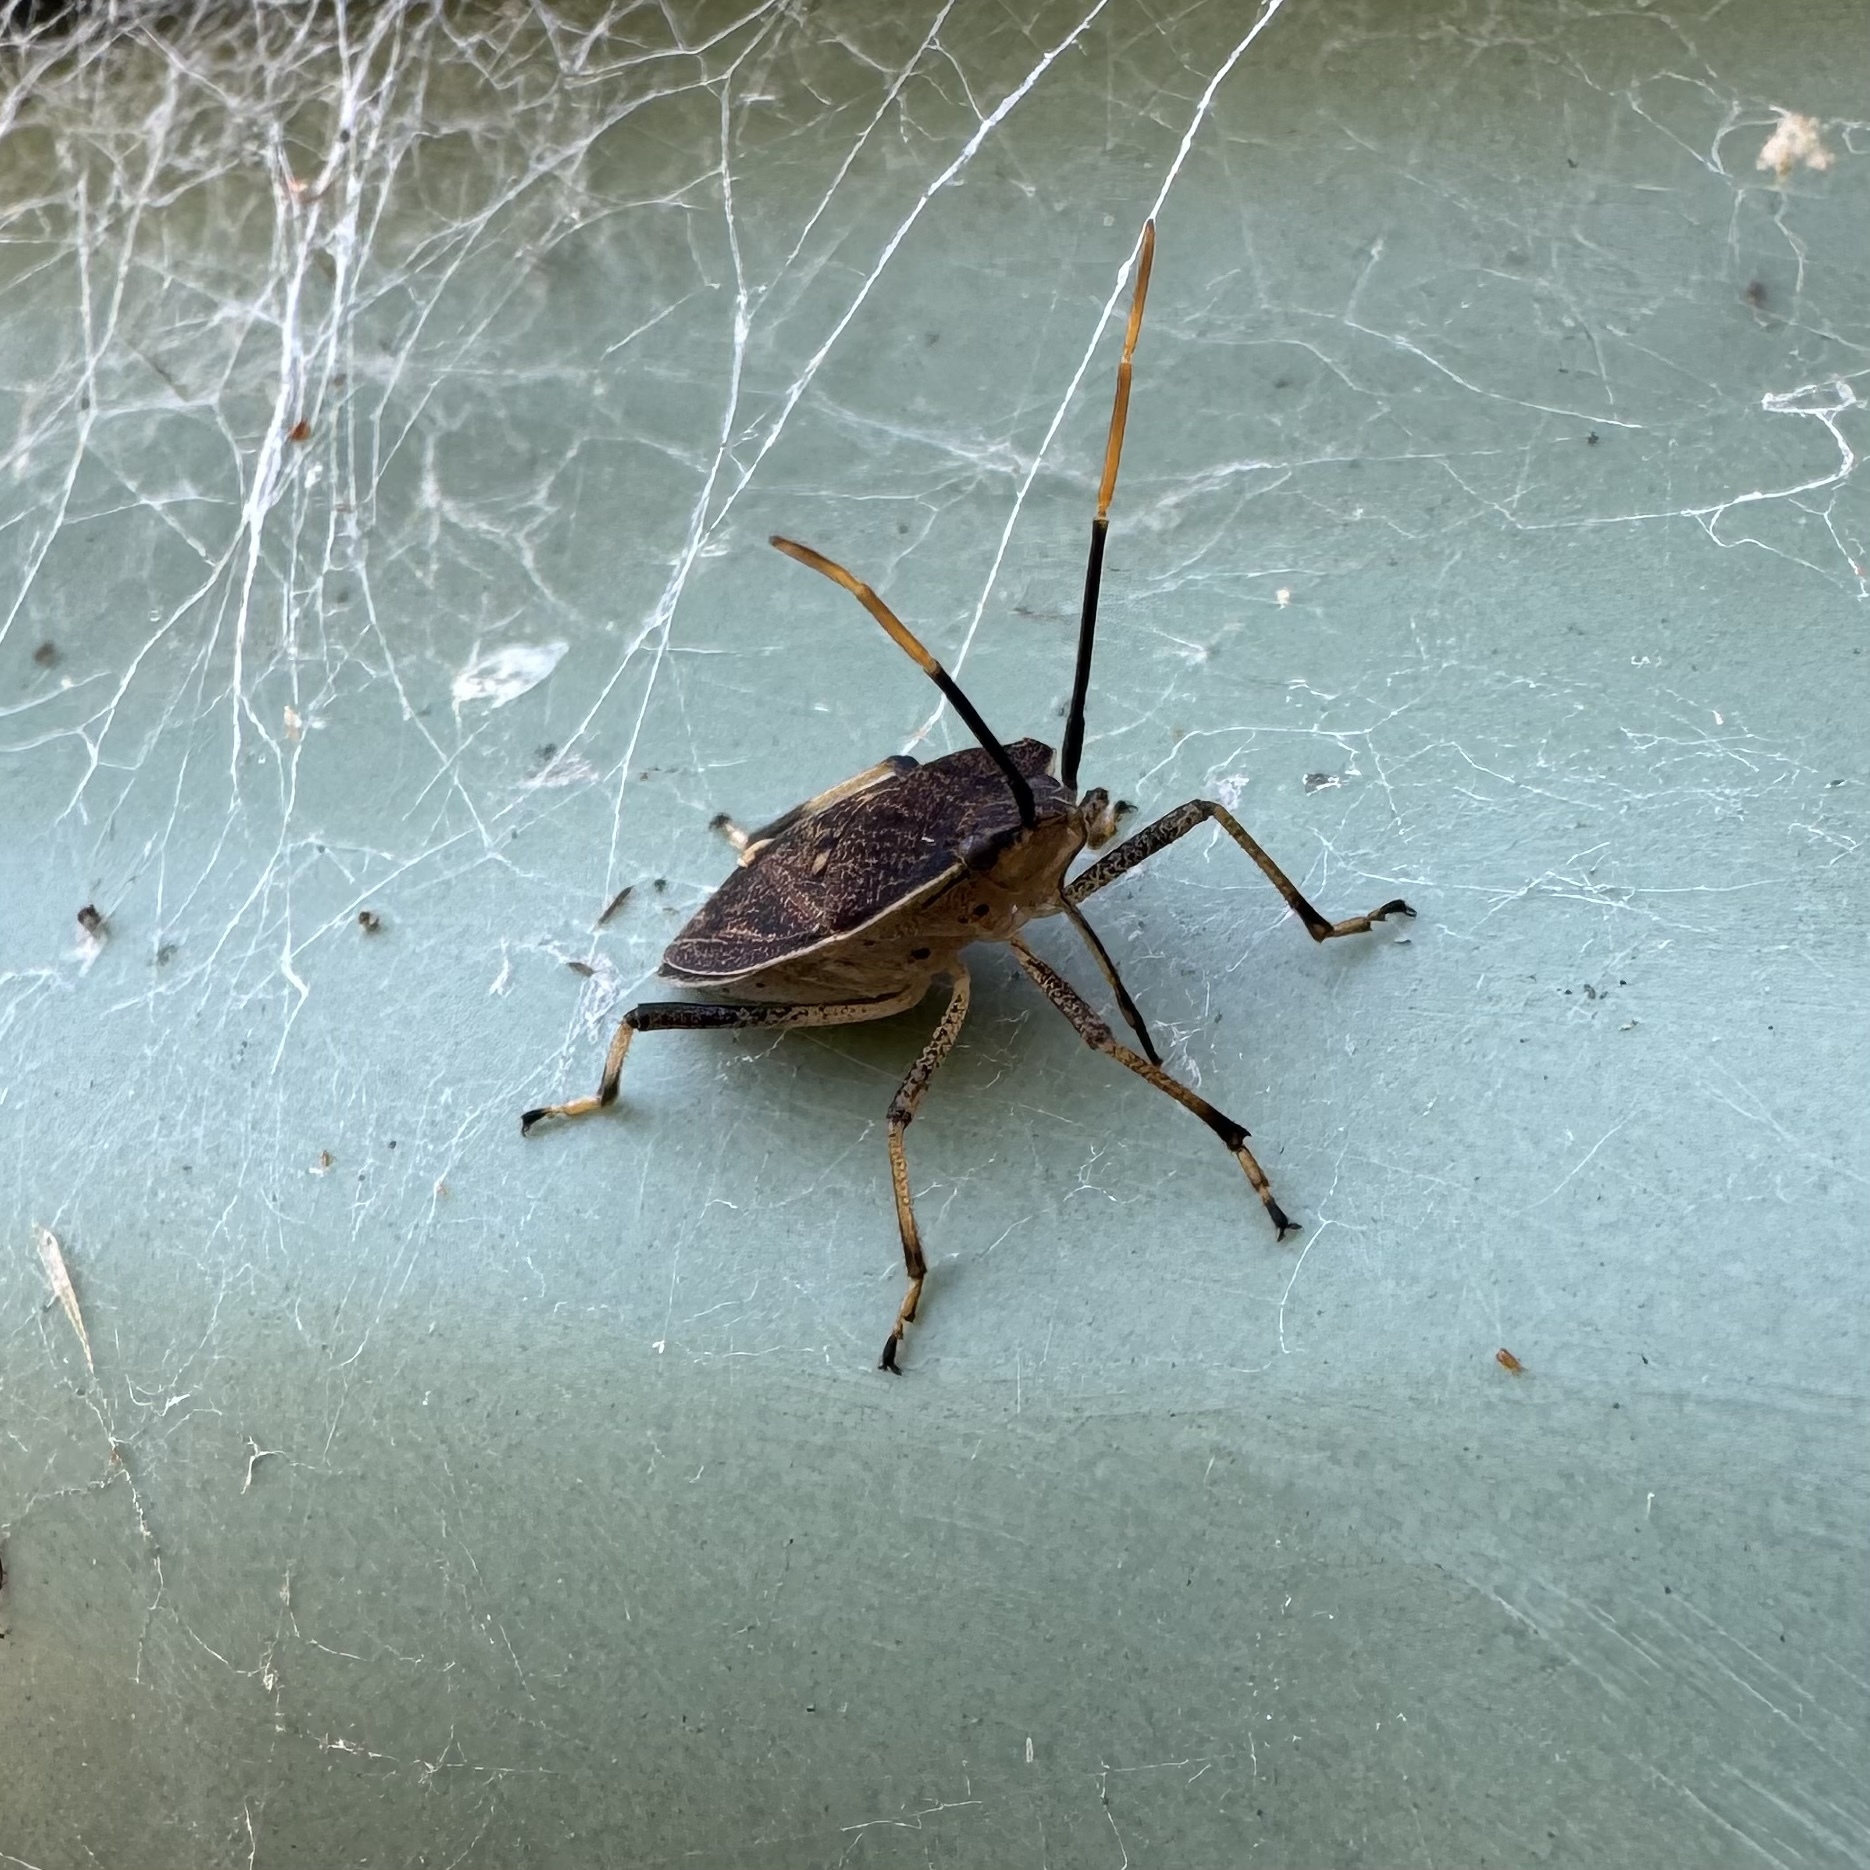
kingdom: Animalia
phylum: Arthropoda
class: Insecta
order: Hemiptera
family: Pentatomidae
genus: Poecilometis
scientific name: Poecilometis
